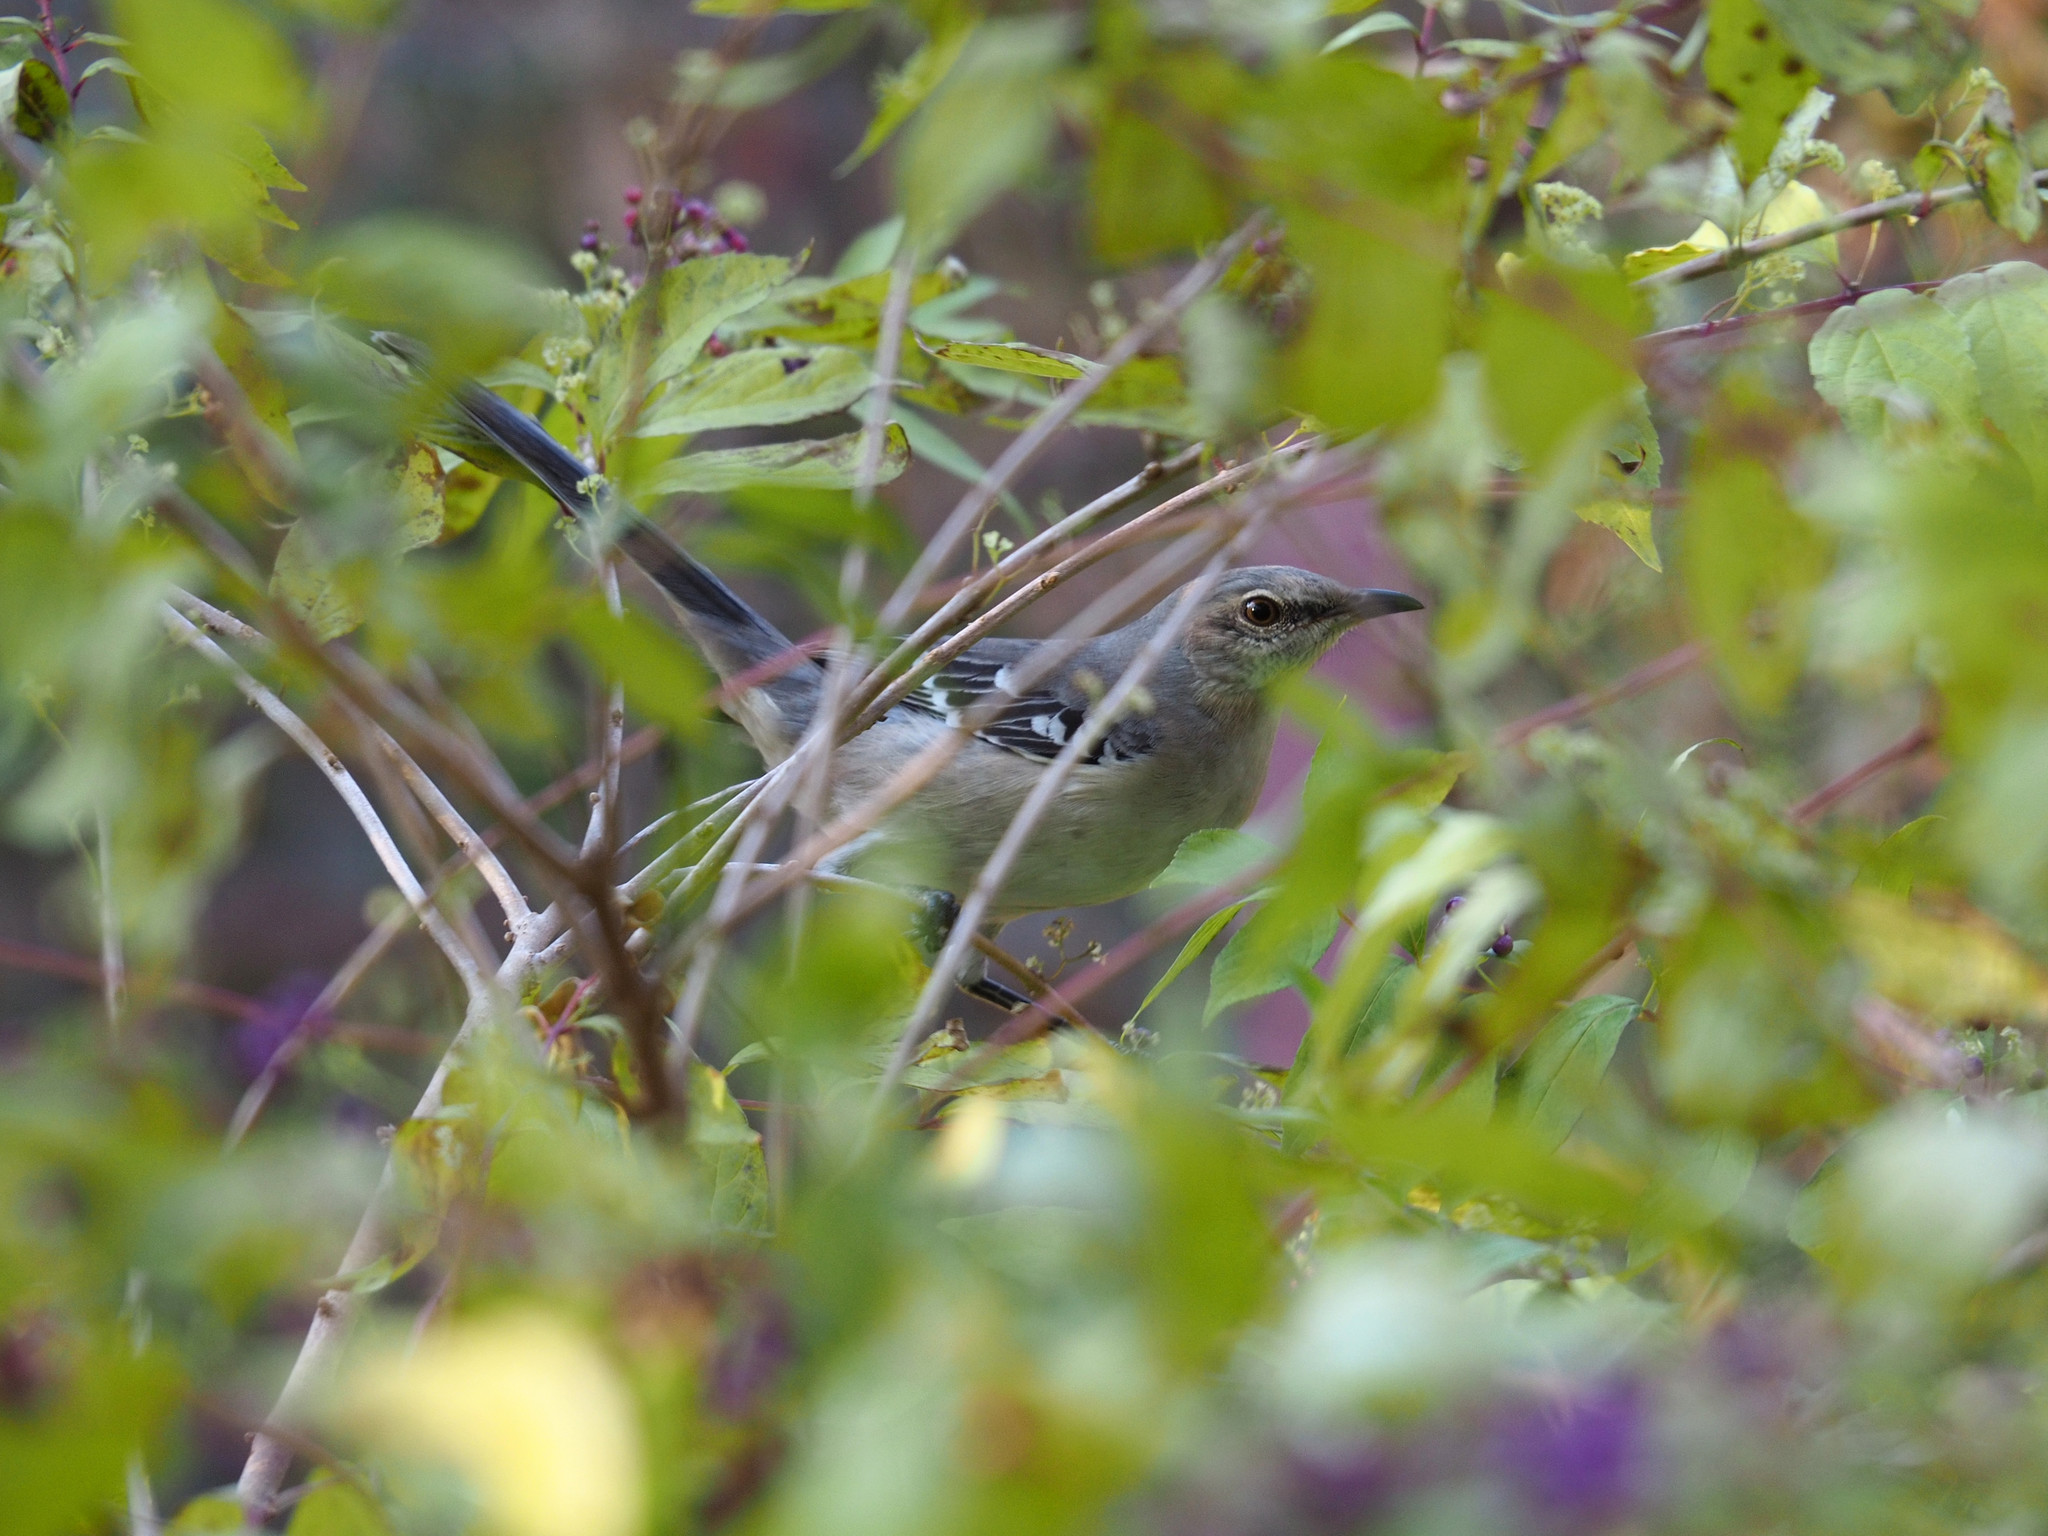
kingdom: Animalia
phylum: Chordata
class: Aves
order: Passeriformes
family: Mimidae
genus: Mimus
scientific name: Mimus polyglottos
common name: Northern mockingbird
